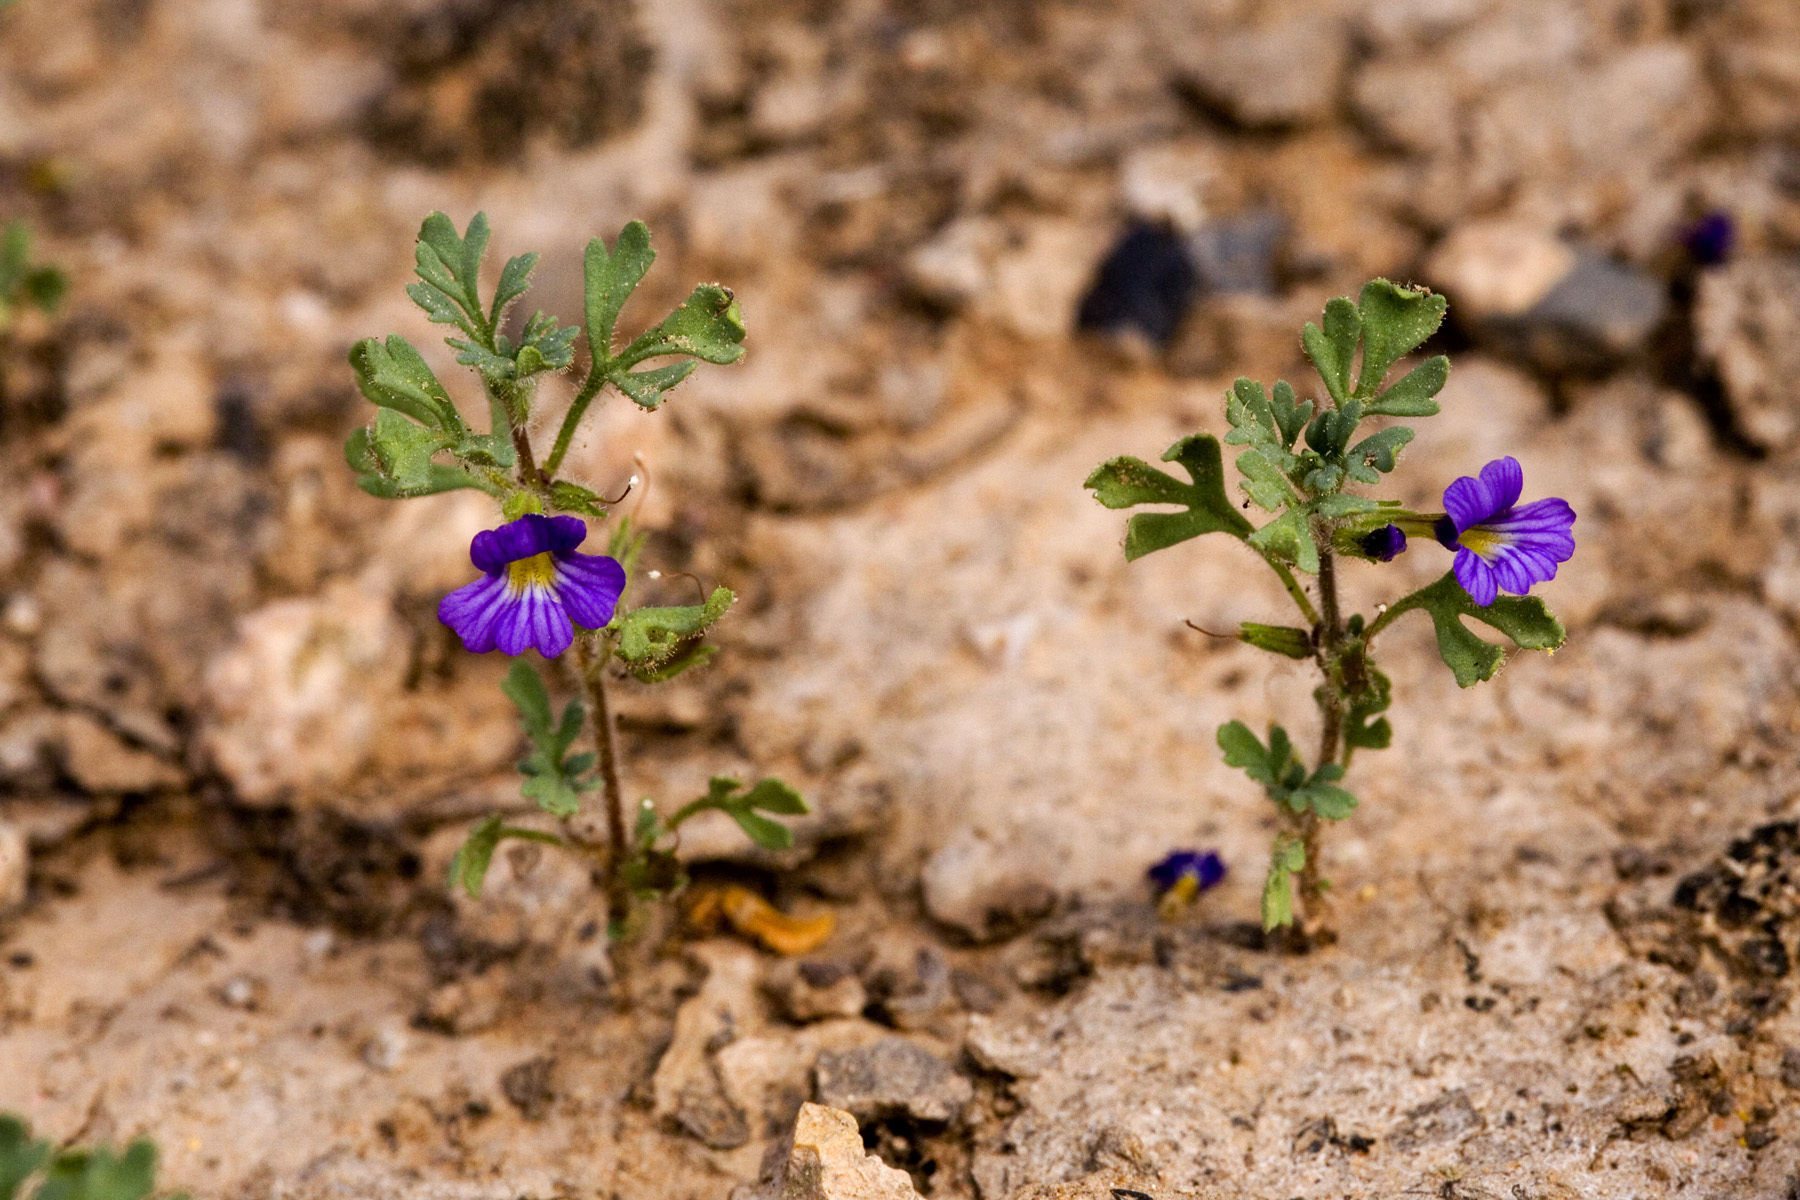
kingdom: Plantae
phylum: Tracheophyta
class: Magnoliopsida
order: Lamiales
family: Plantaginaceae
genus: Schistophragma
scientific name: Schistophragma intermedium
